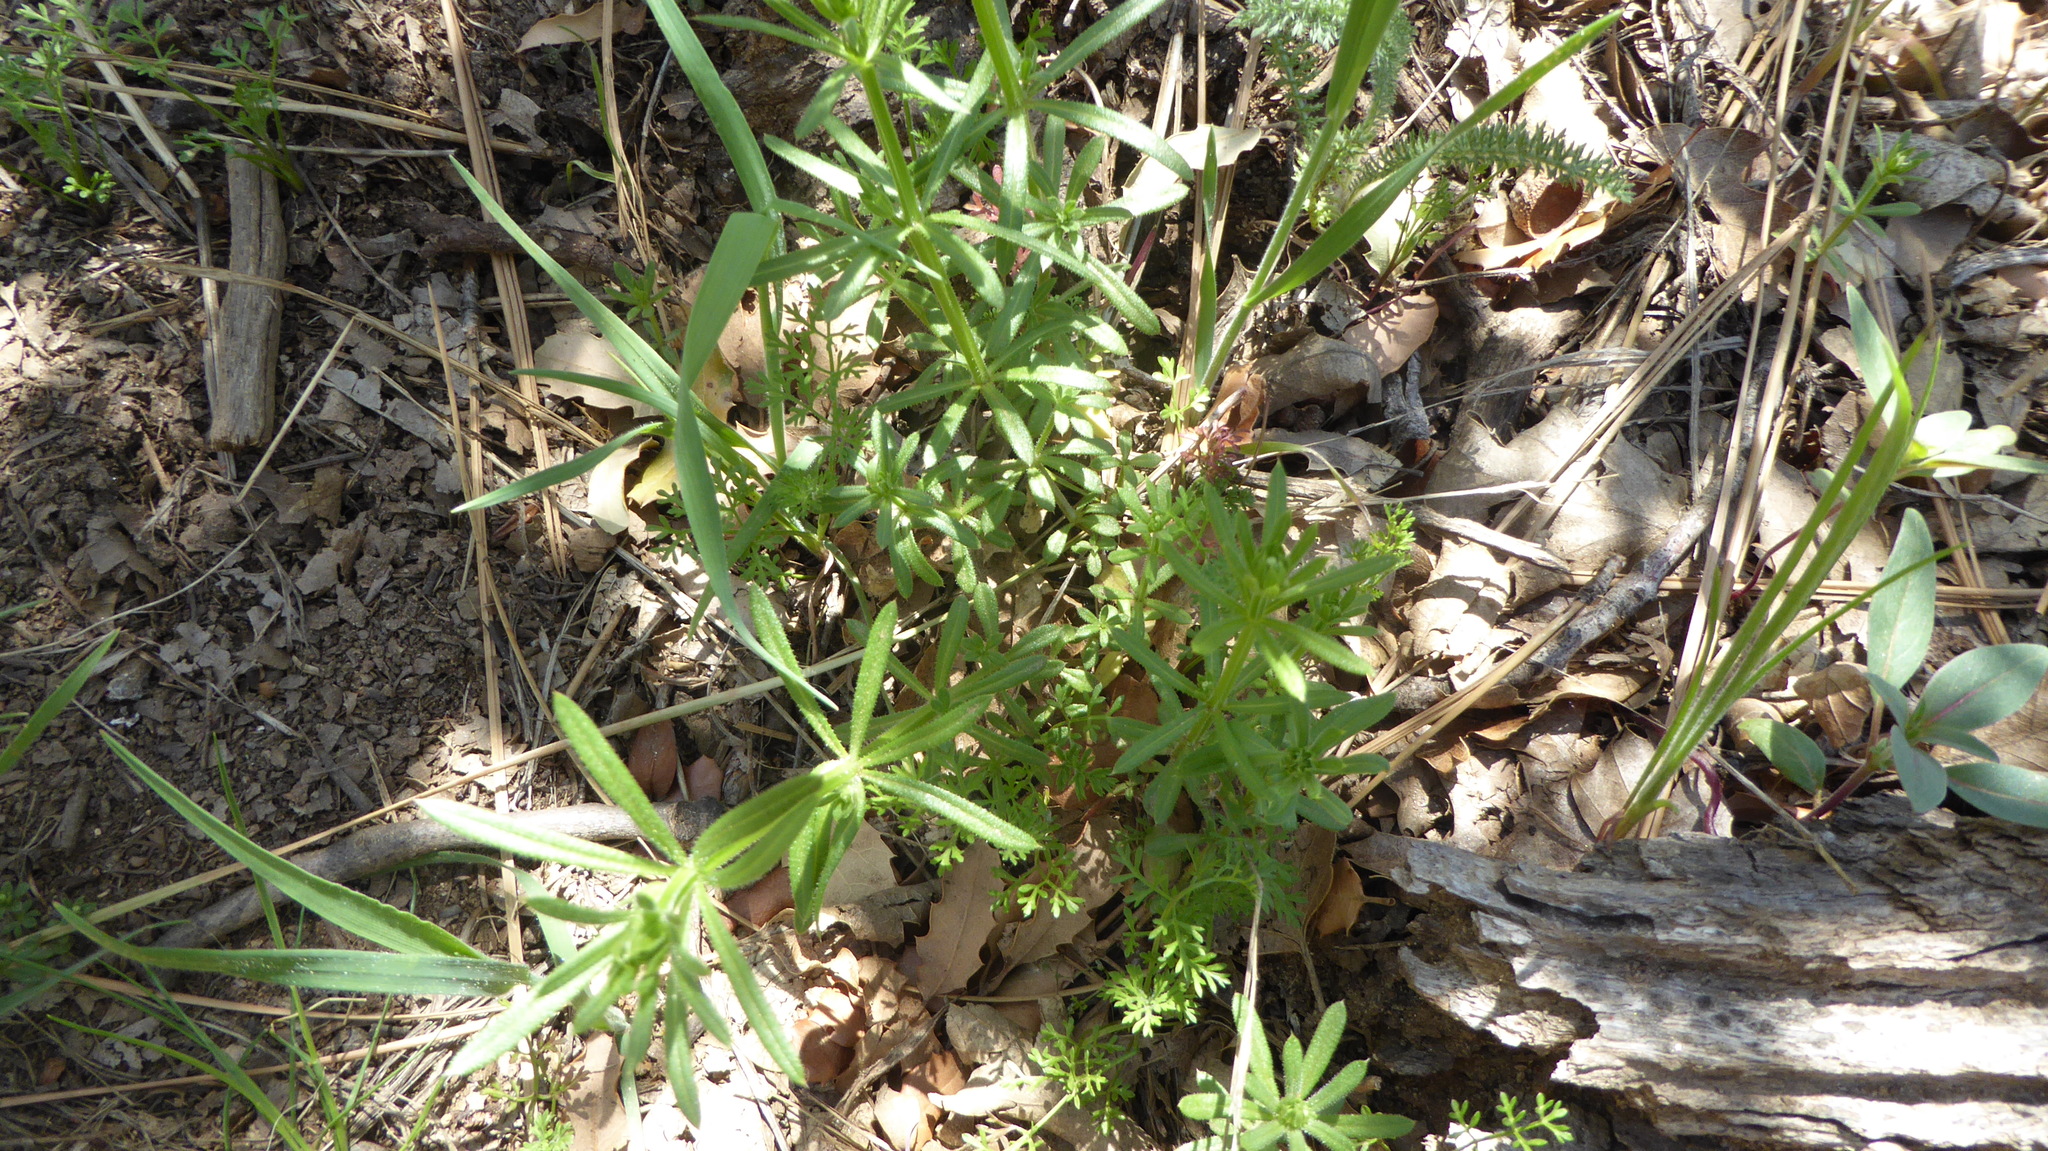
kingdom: Plantae
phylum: Tracheophyta
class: Magnoliopsida
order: Gentianales
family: Rubiaceae
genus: Galium
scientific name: Galium aparine
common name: Cleavers
